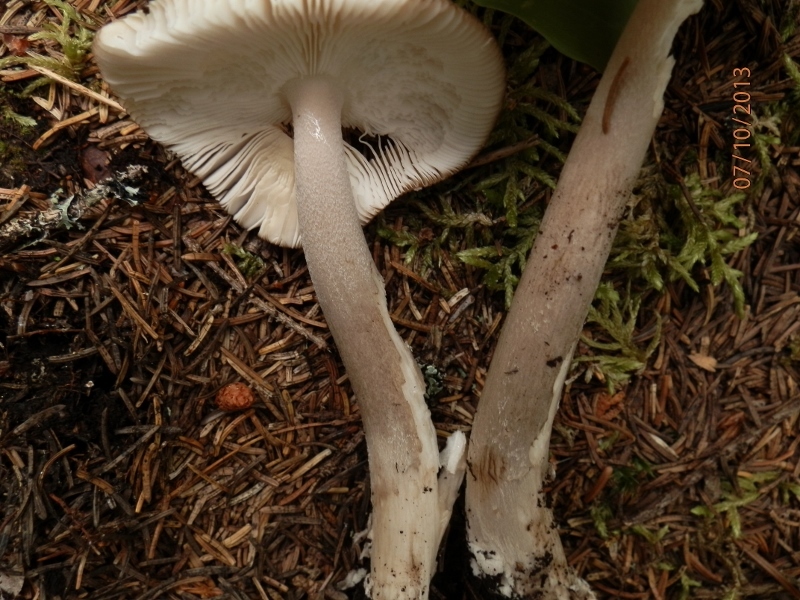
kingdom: Fungi
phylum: Basidiomycota
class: Agaricomycetes
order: Agaricales
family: Amanitaceae
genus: Amanita
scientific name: Amanita rhacopus
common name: Shaggy legged ringless amanita
